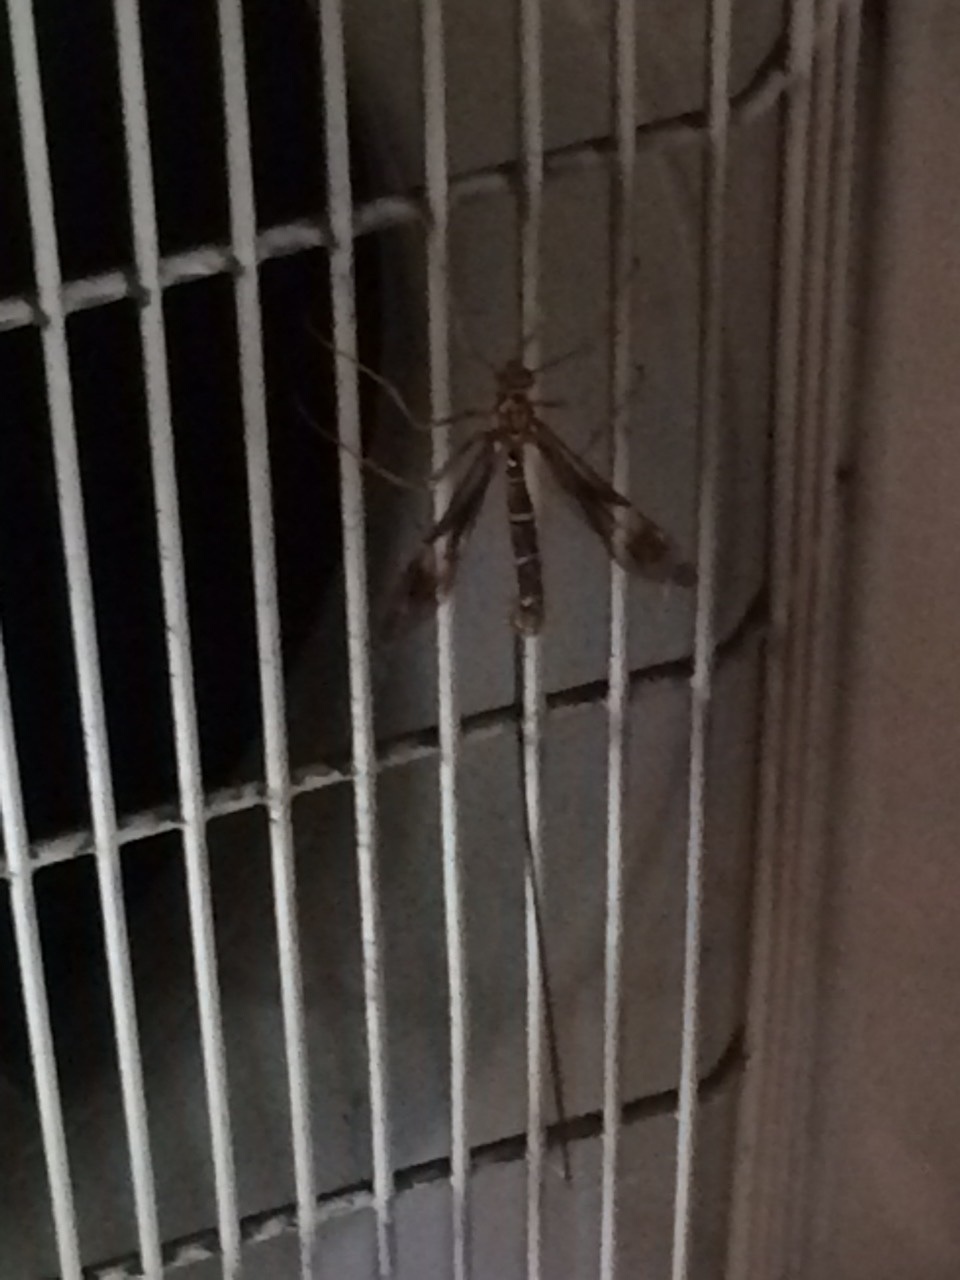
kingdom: Animalia
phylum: Arthropoda
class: Insecta
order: Hymenoptera
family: Ichneumonidae
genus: Megarhyssa
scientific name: Megarhyssa macrura
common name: Long-tailed giant ichneumonid wasp
